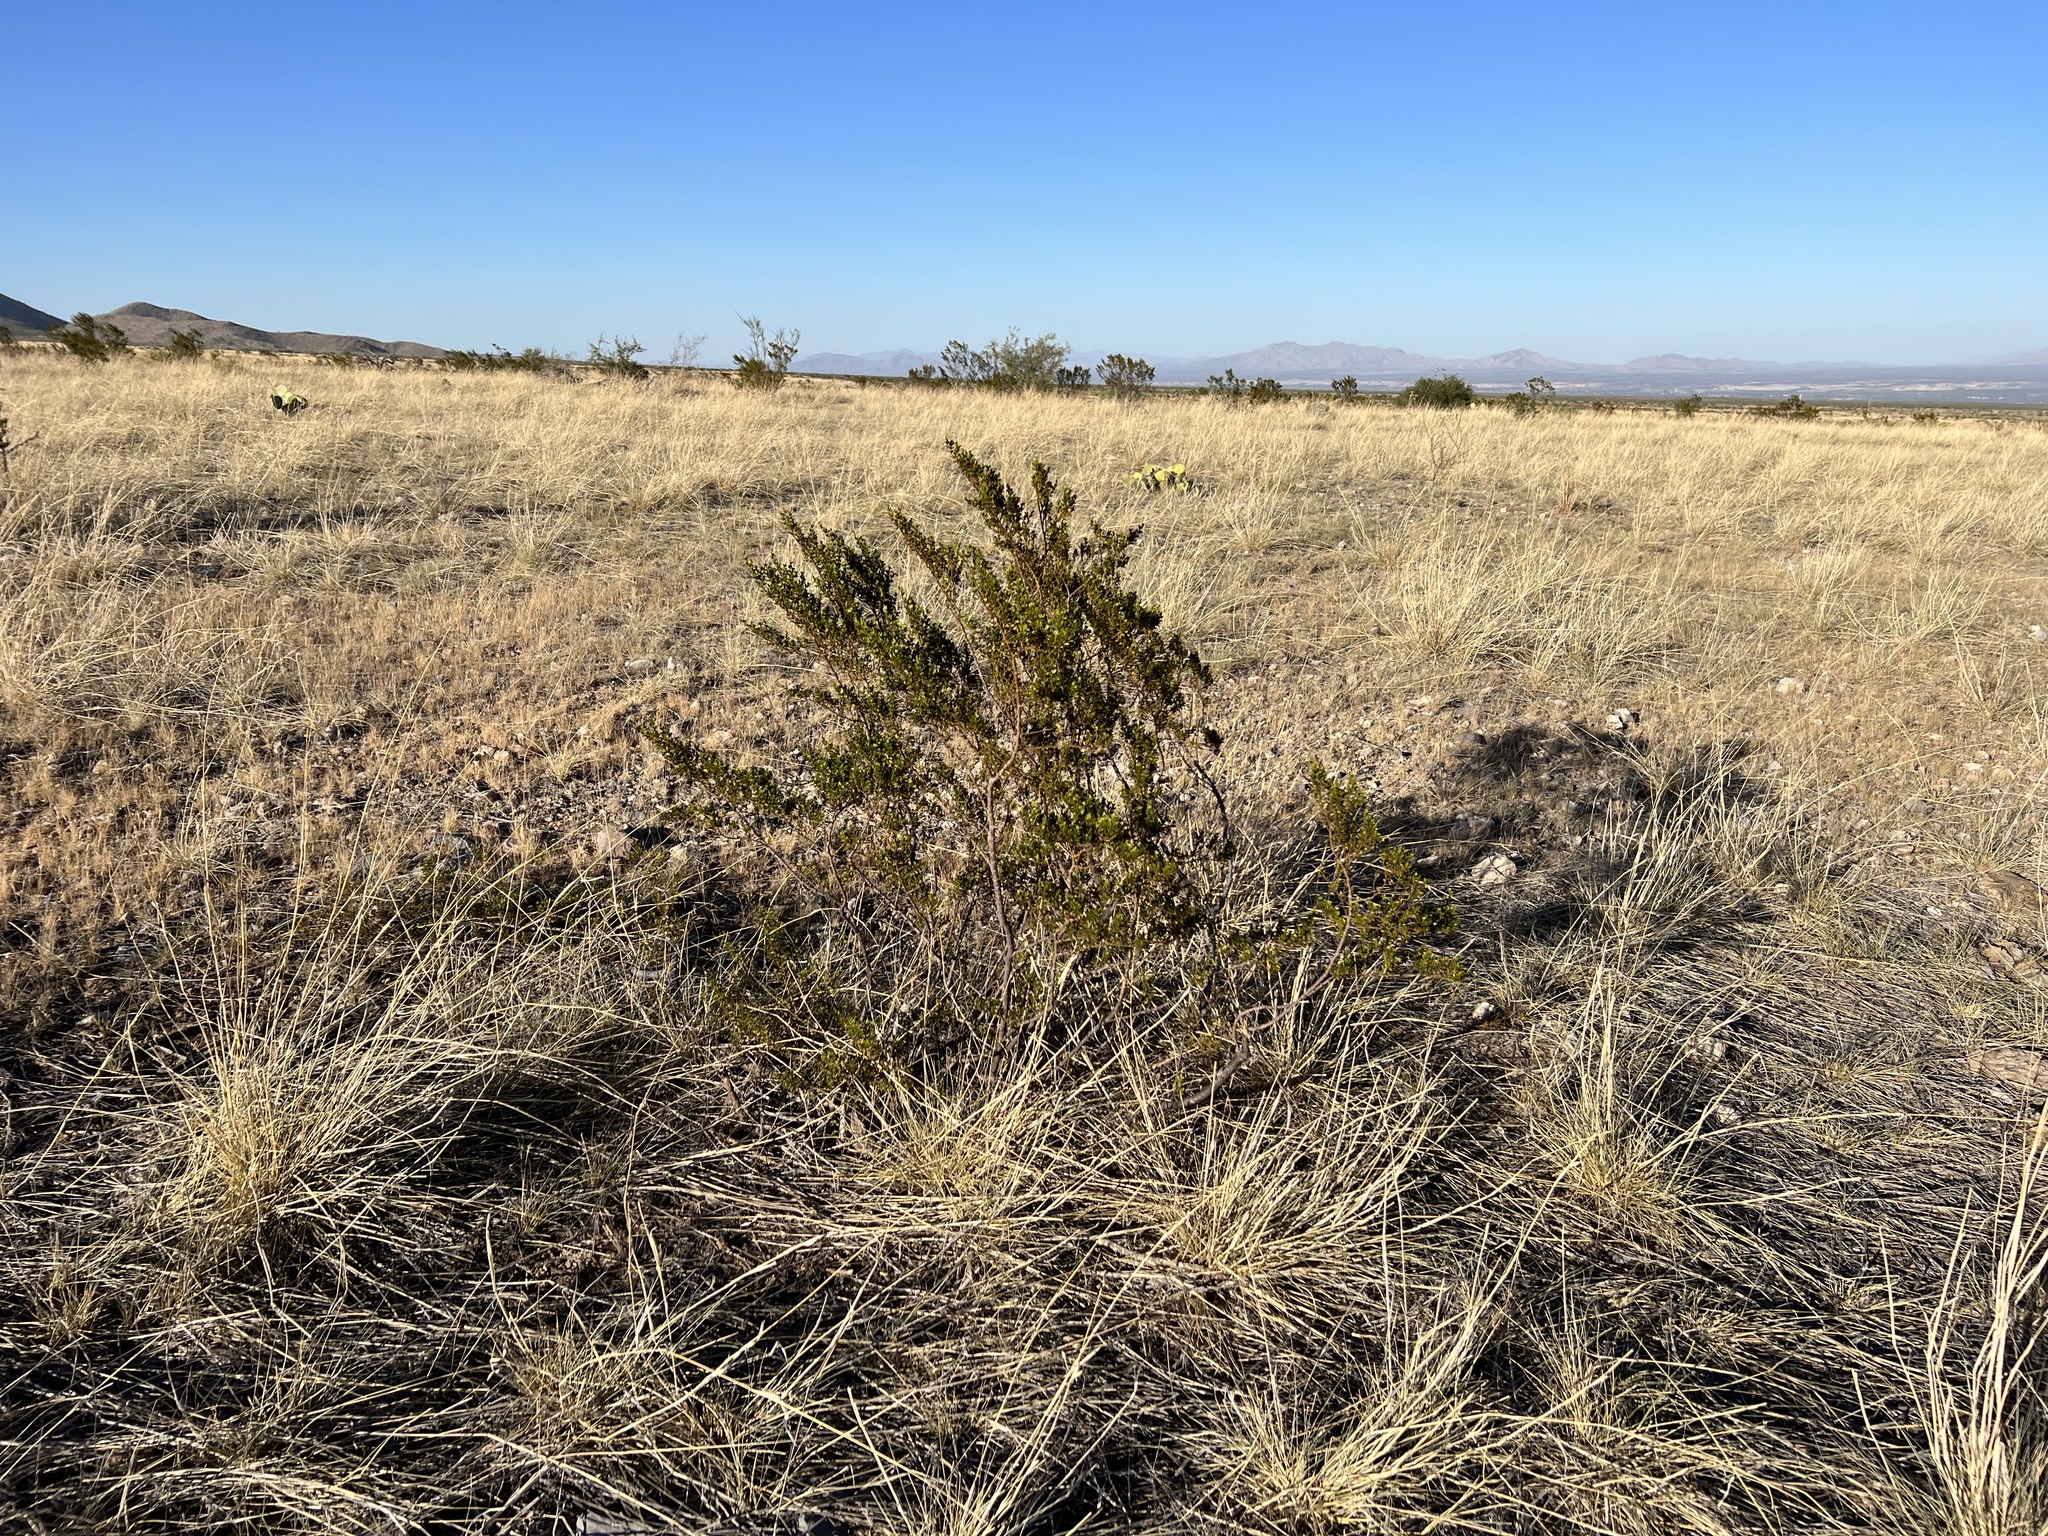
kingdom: Plantae
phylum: Tracheophyta
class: Magnoliopsida
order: Zygophyllales
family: Zygophyllaceae
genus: Larrea
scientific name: Larrea tridentata
